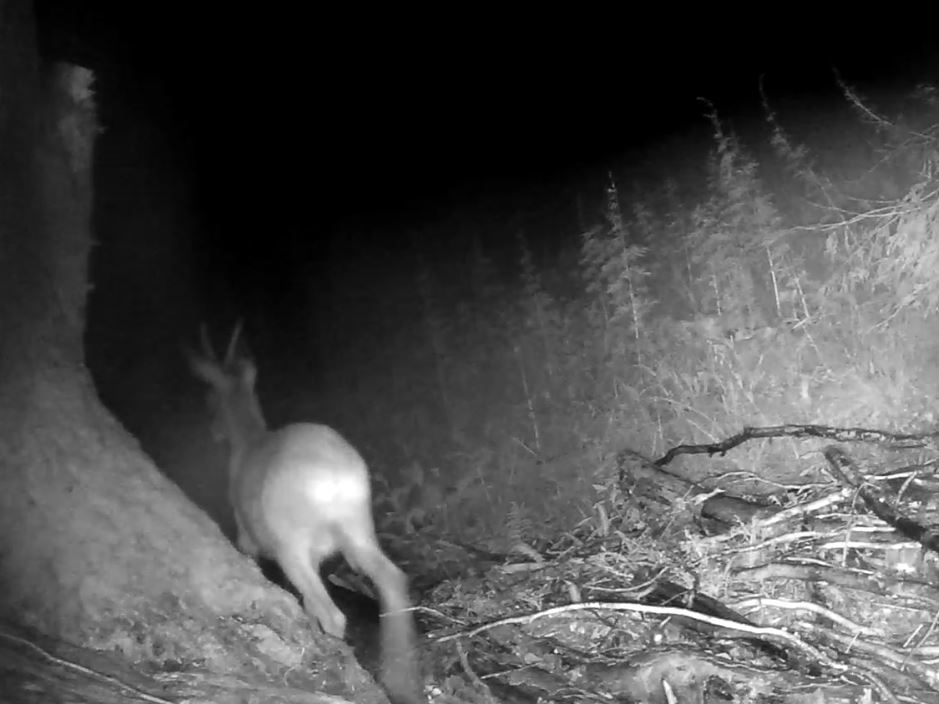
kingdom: Animalia
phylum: Chordata
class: Mammalia
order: Artiodactyla
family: Cervidae
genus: Capreolus
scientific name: Capreolus capreolus
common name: Western roe deer
